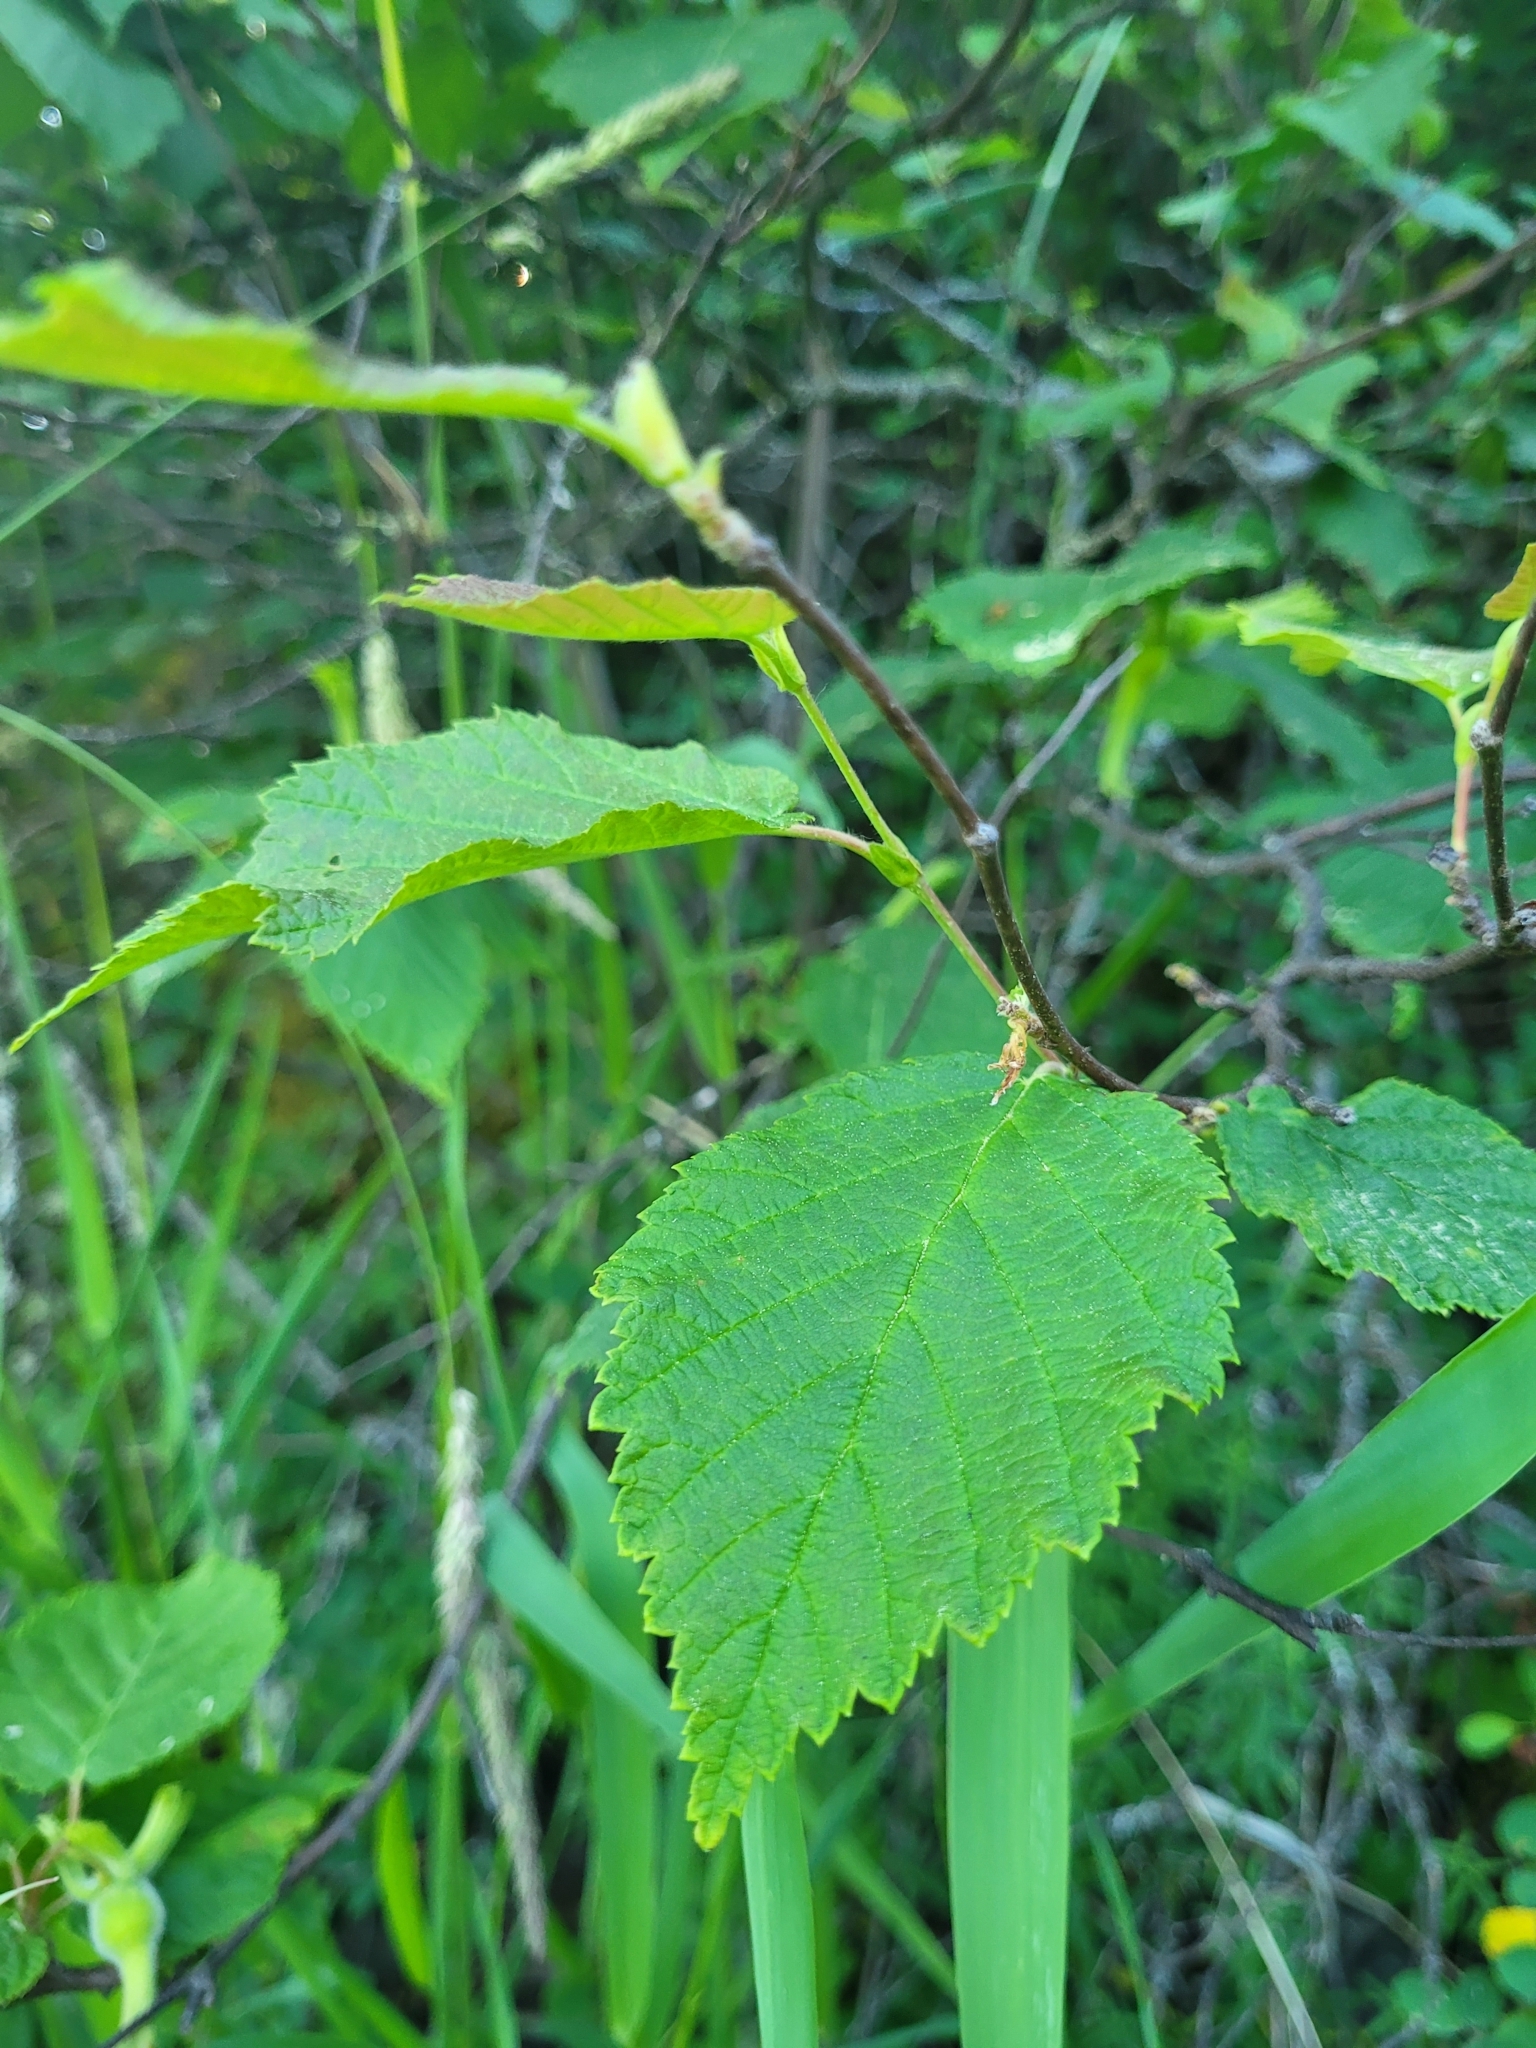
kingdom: Plantae
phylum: Tracheophyta
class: Magnoliopsida
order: Fagales
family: Betulaceae
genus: Corylus
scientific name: Corylus cornuta
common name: Beaked hazel
